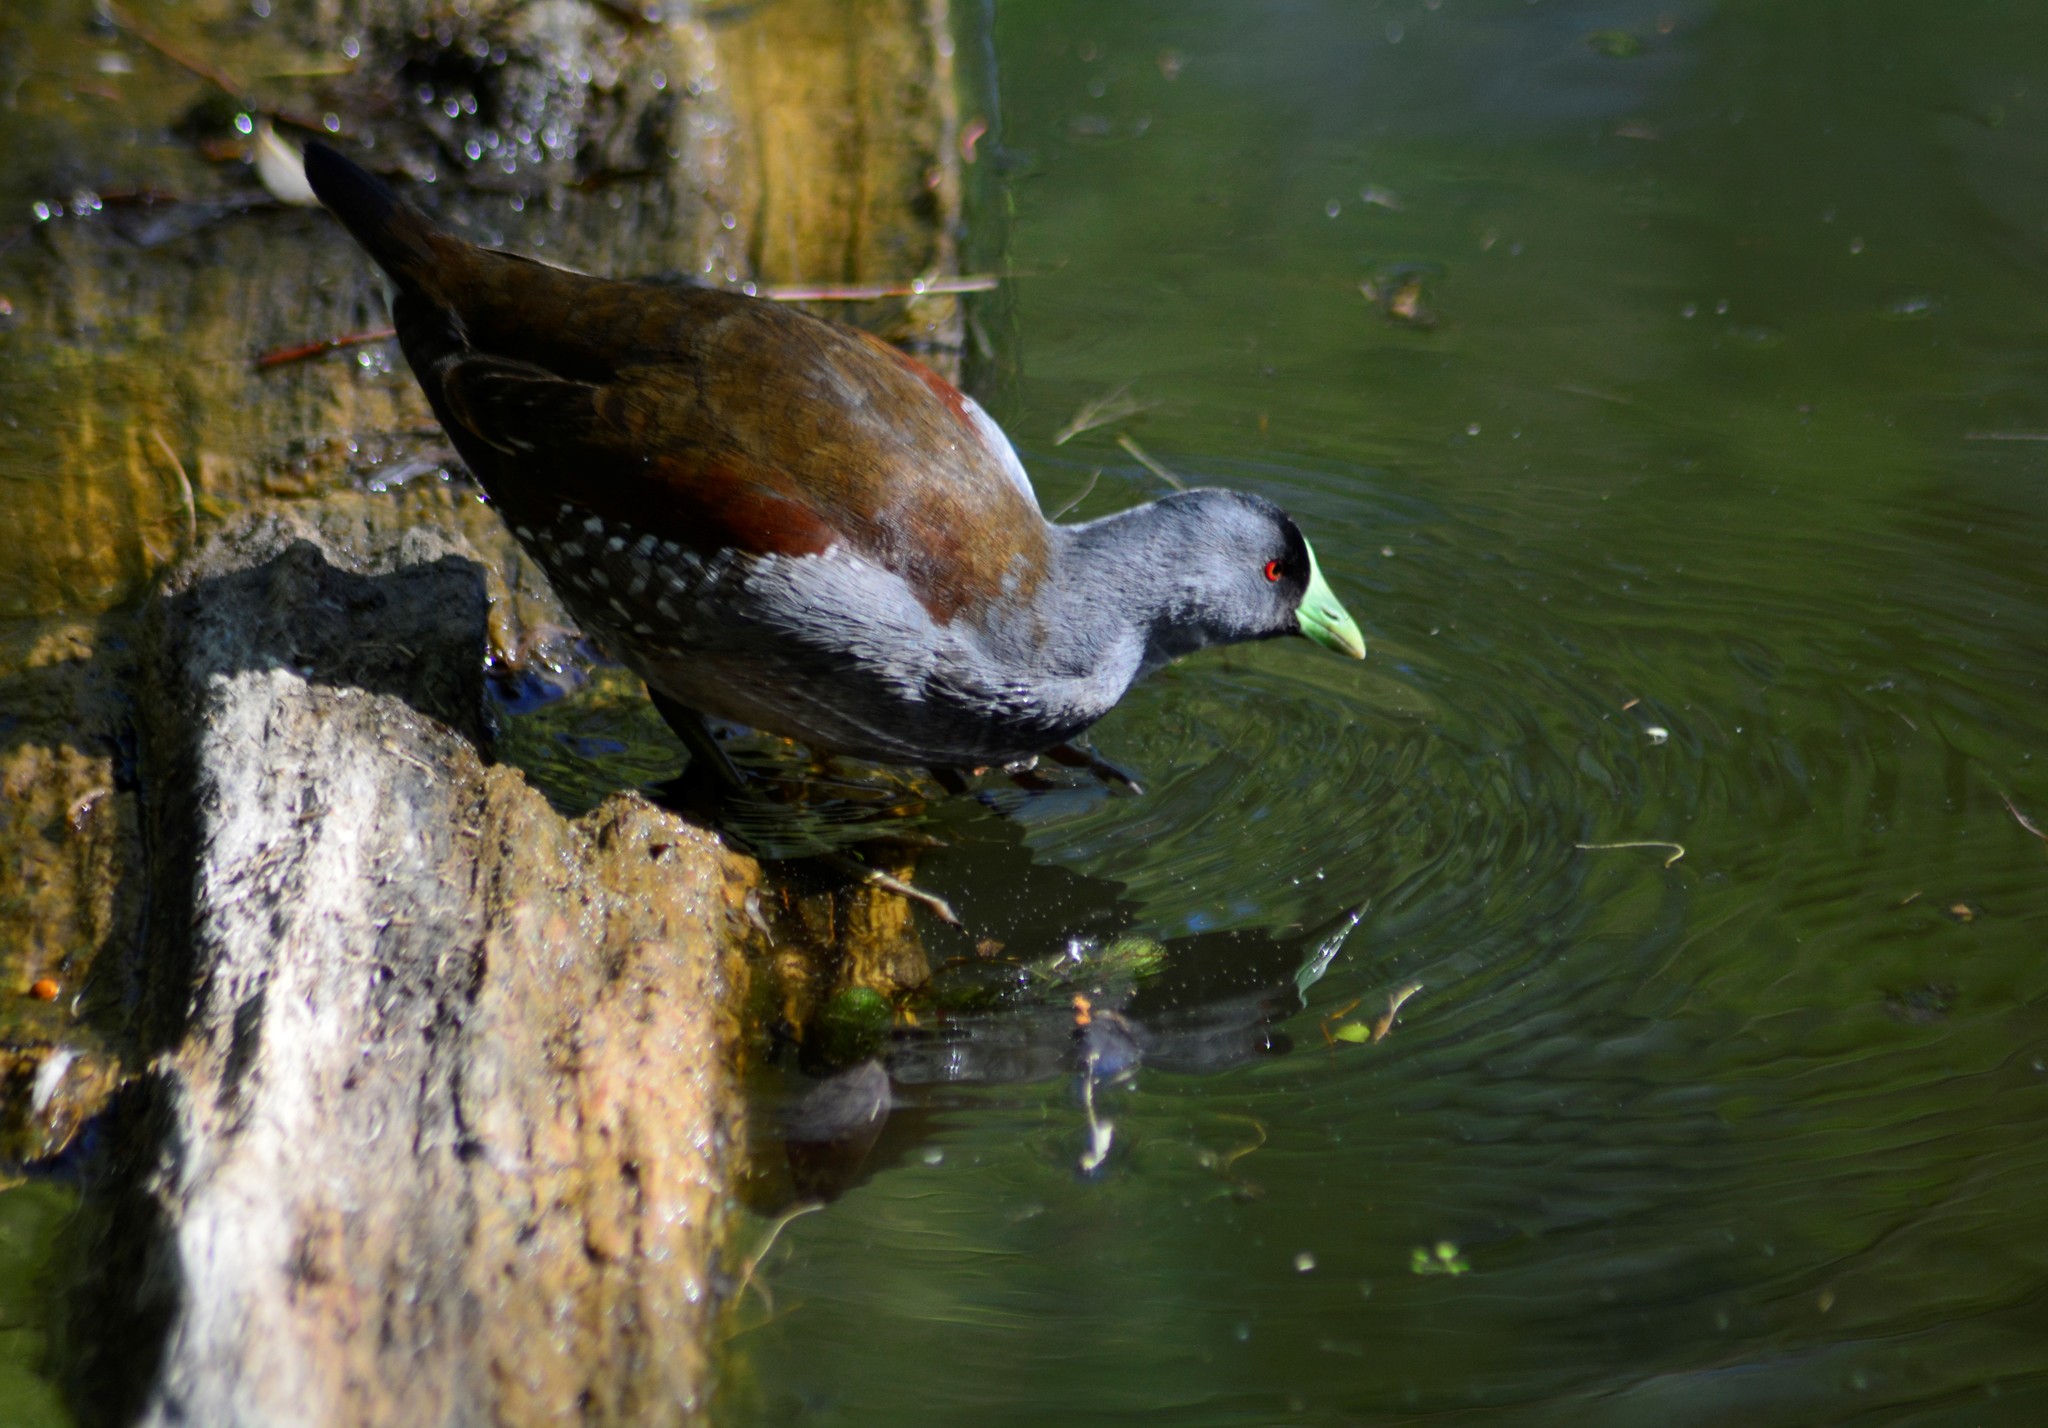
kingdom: Animalia
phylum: Chordata
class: Aves
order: Gruiformes
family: Rallidae
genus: Gallinula
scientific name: Gallinula melanops
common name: Spot-flanked gallinule
